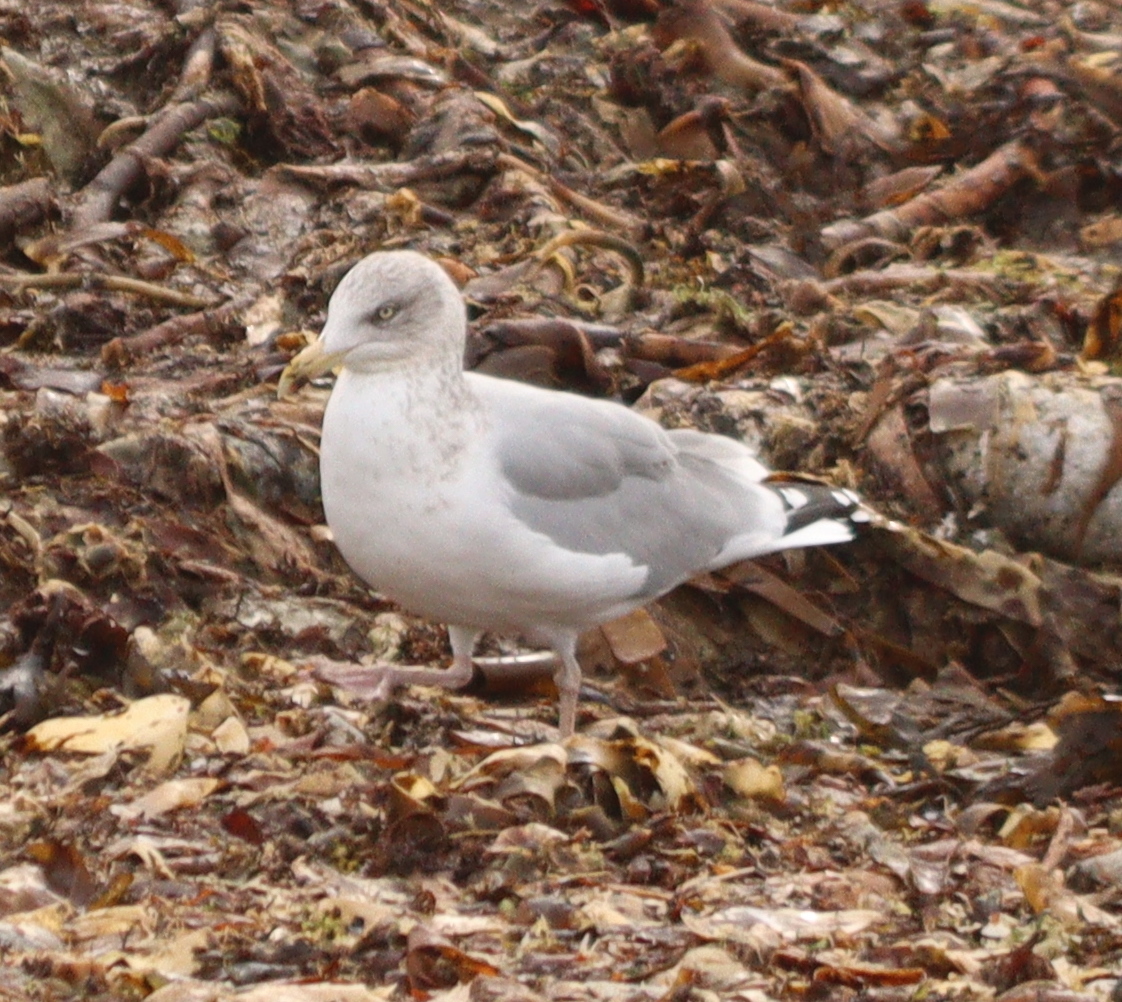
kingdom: Animalia
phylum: Chordata
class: Aves
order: Charadriiformes
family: Laridae
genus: Larus
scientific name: Larus argentatus
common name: Herring gull
